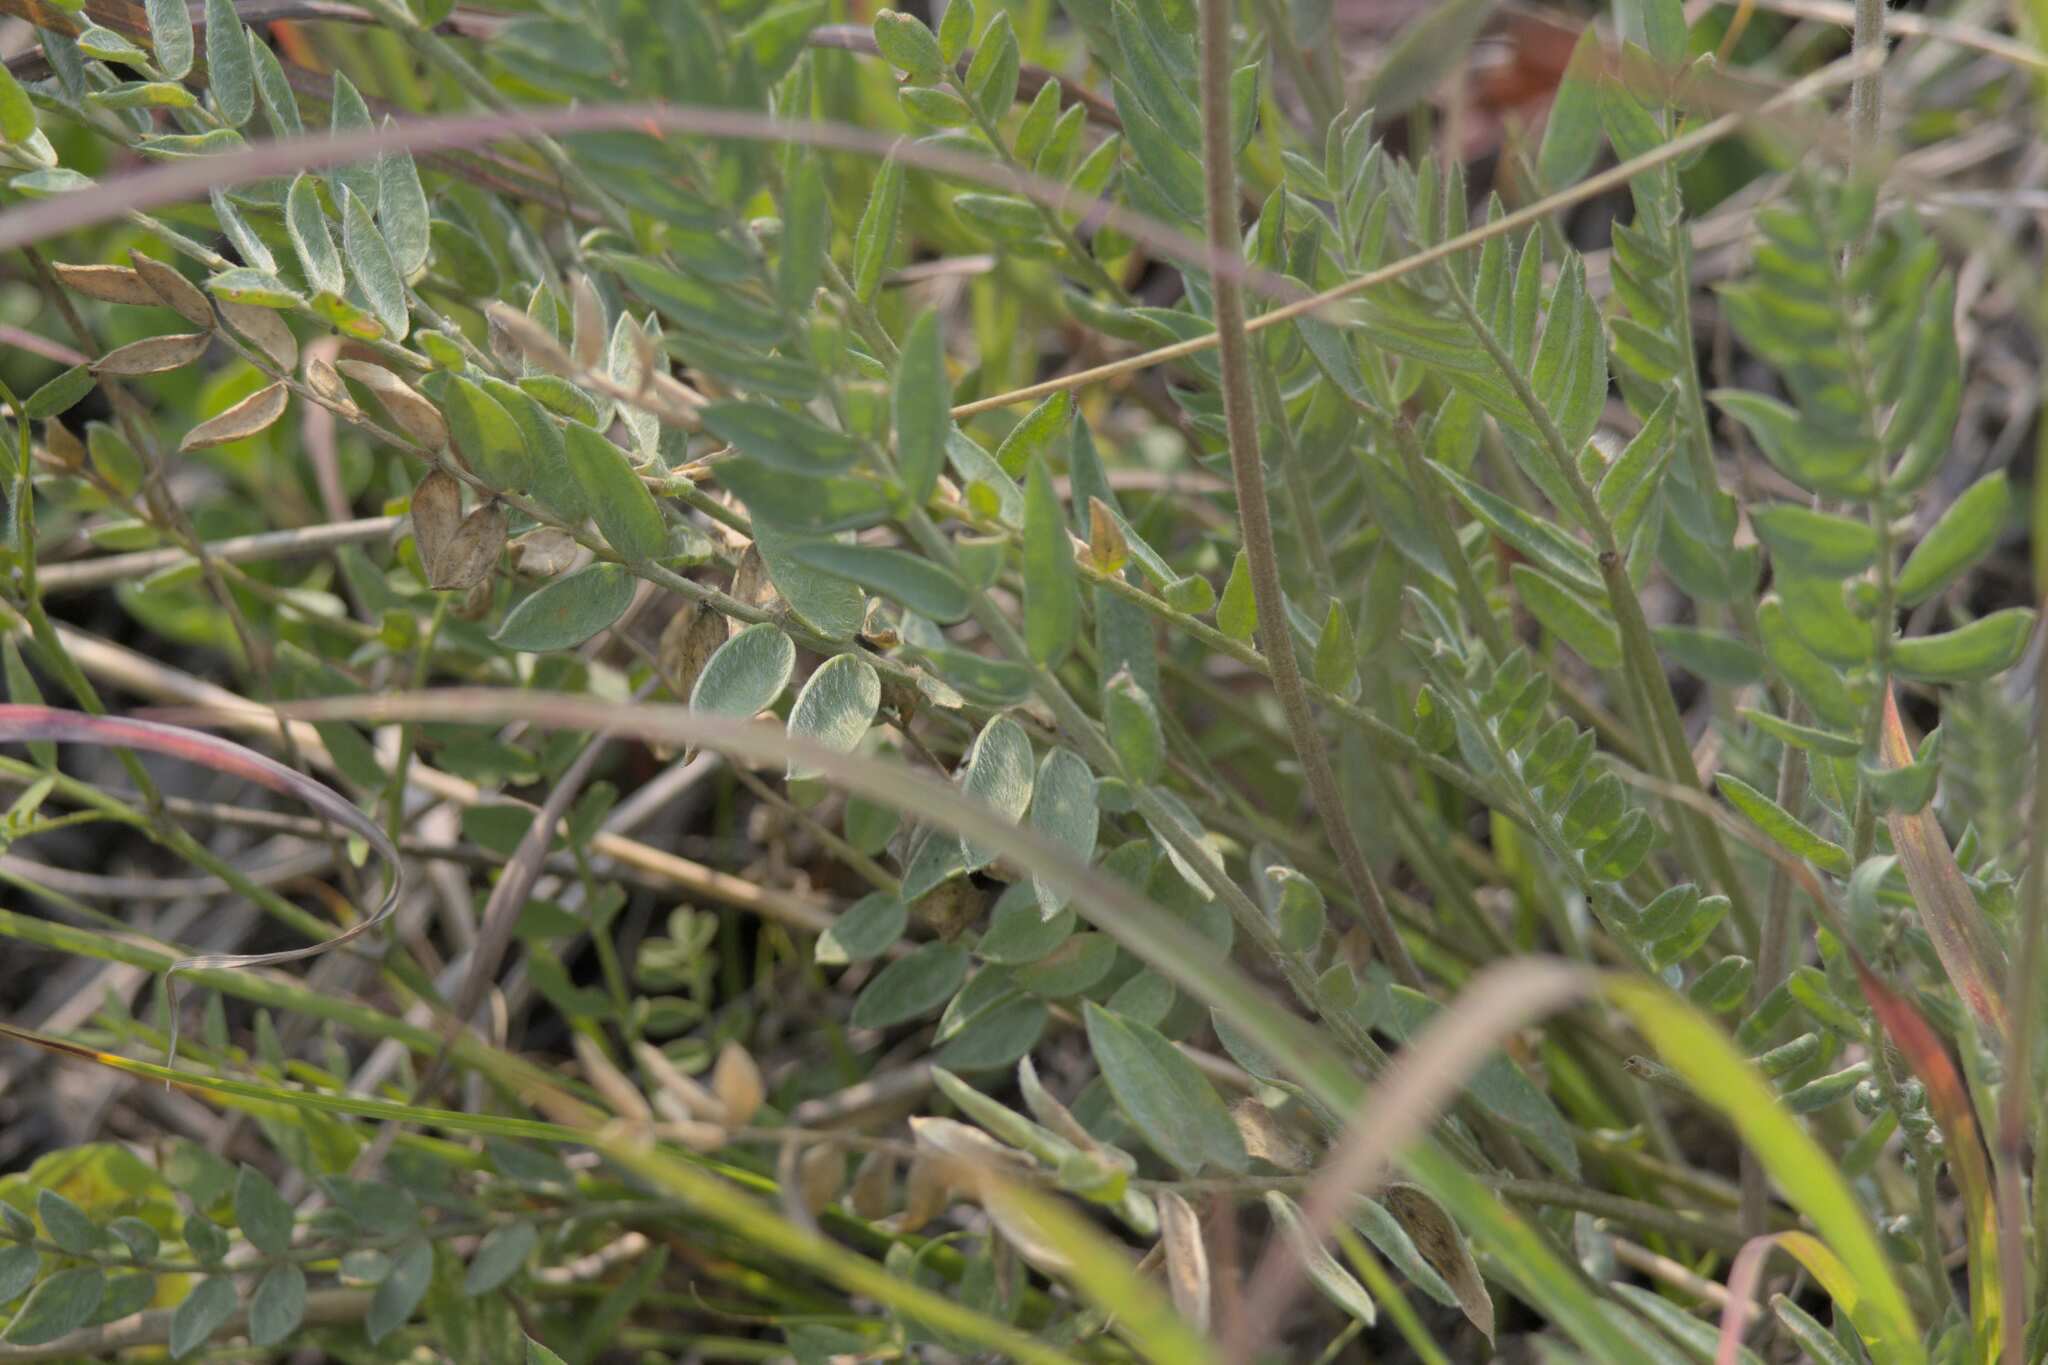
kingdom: Plantae
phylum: Tracheophyta
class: Magnoliopsida
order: Fabales
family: Fabaceae
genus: Oxytropis
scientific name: Oxytropis campestris
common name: Field locoweed
